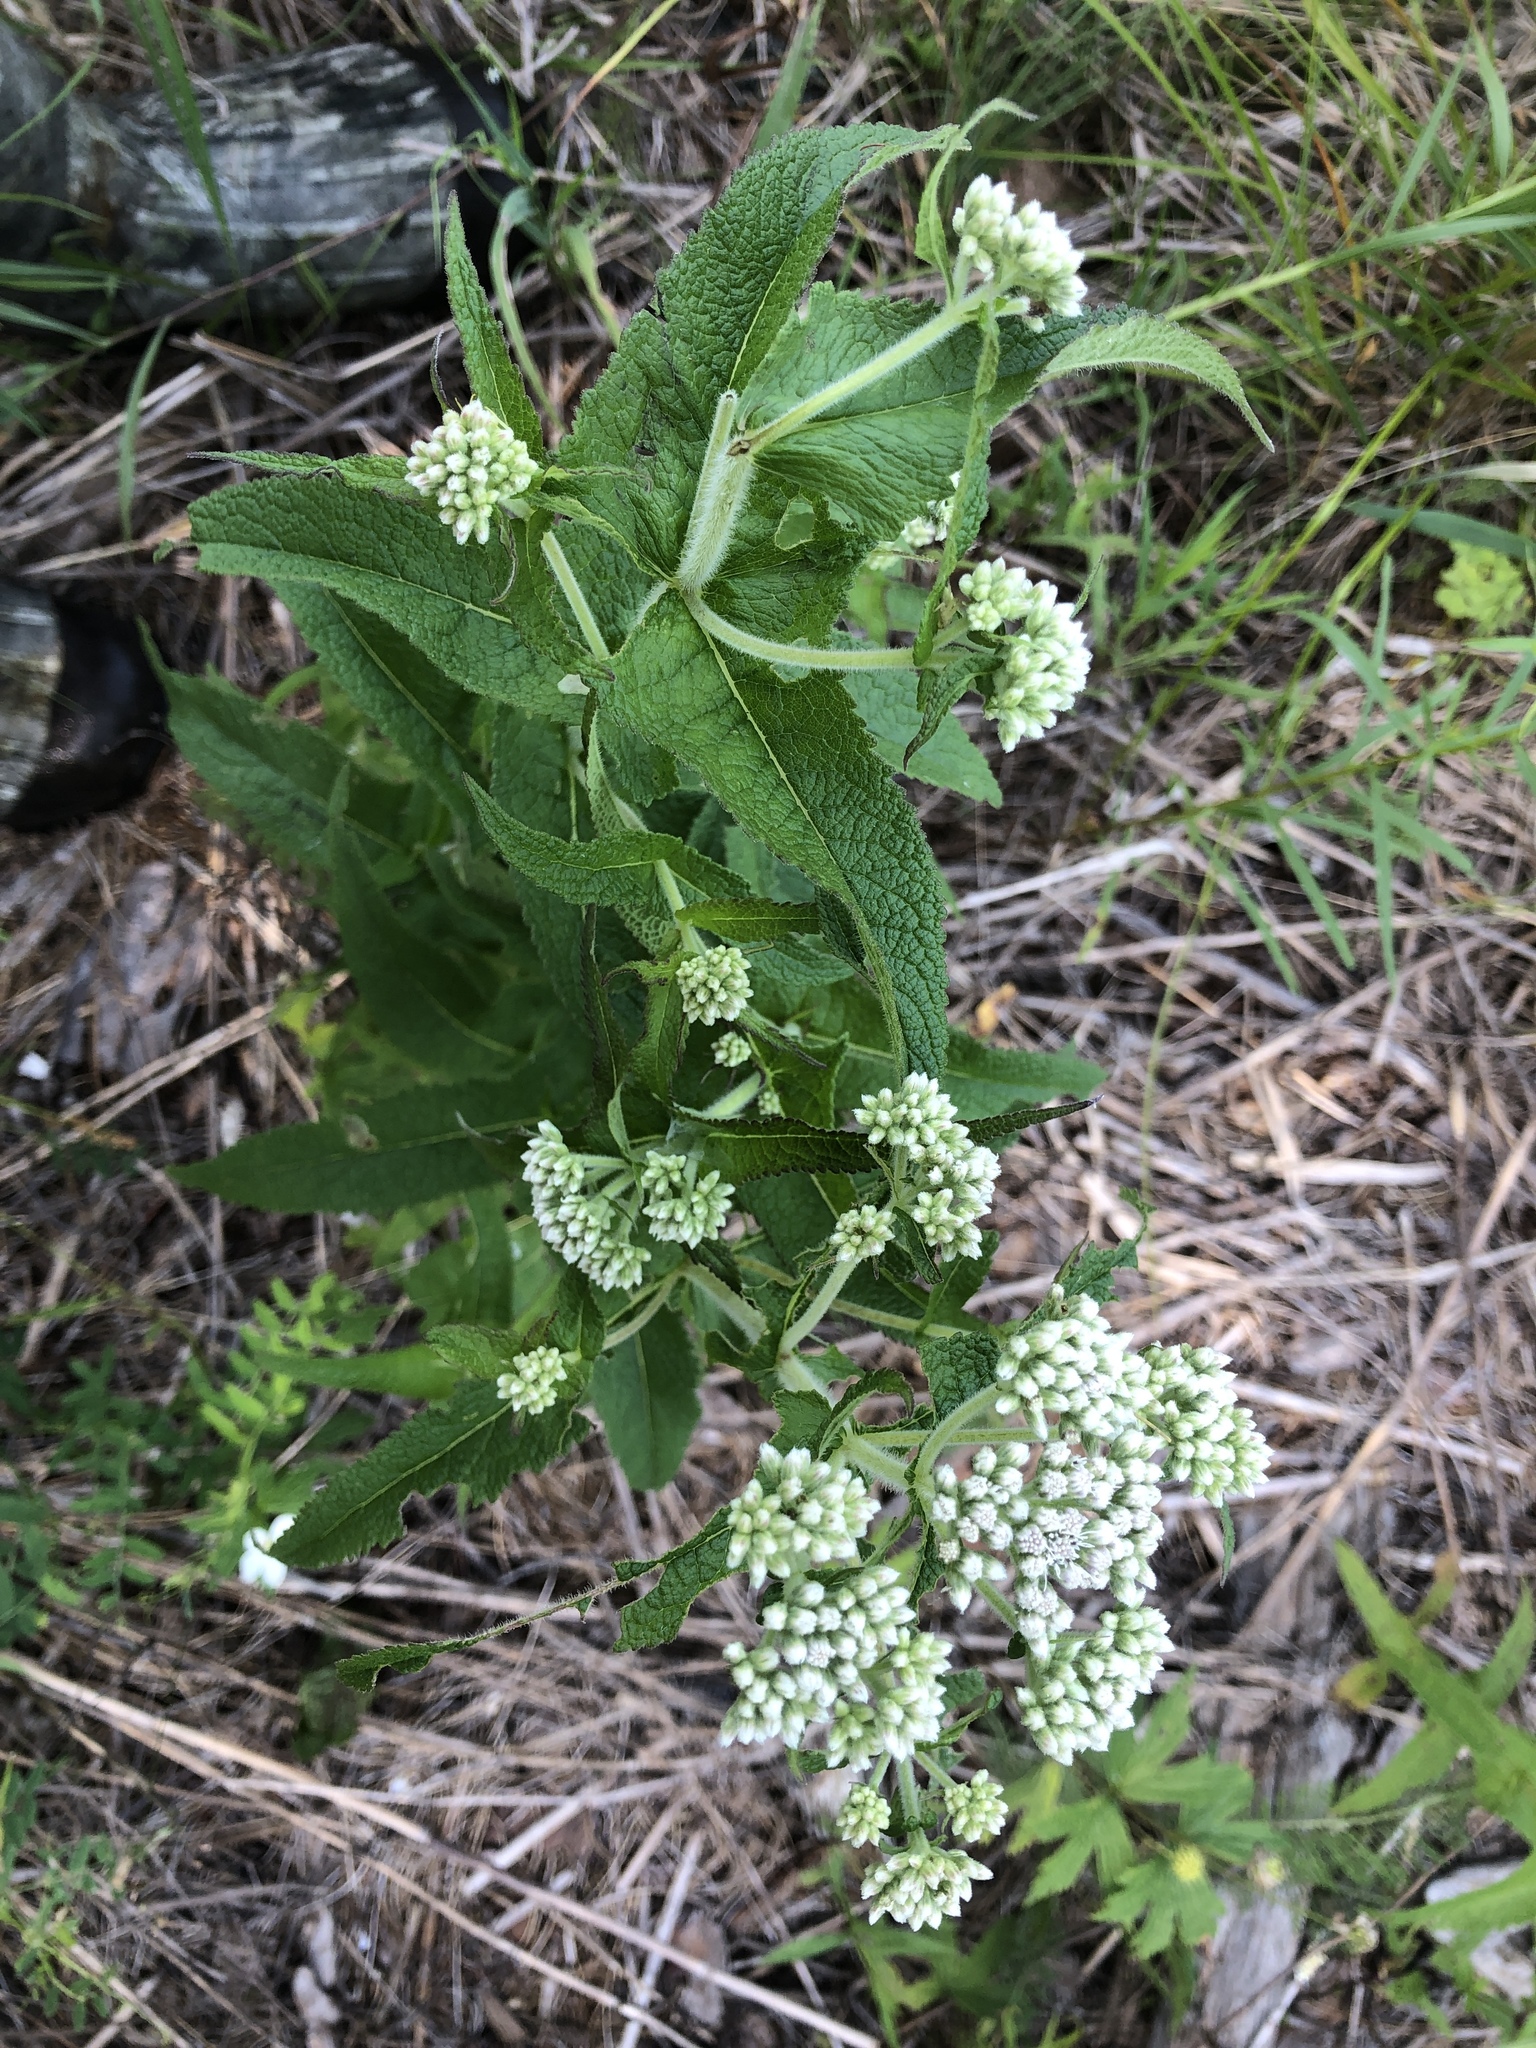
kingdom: Plantae
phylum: Tracheophyta
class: Magnoliopsida
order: Asterales
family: Asteraceae
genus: Eupatorium
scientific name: Eupatorium perfoliatum
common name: Boneset
